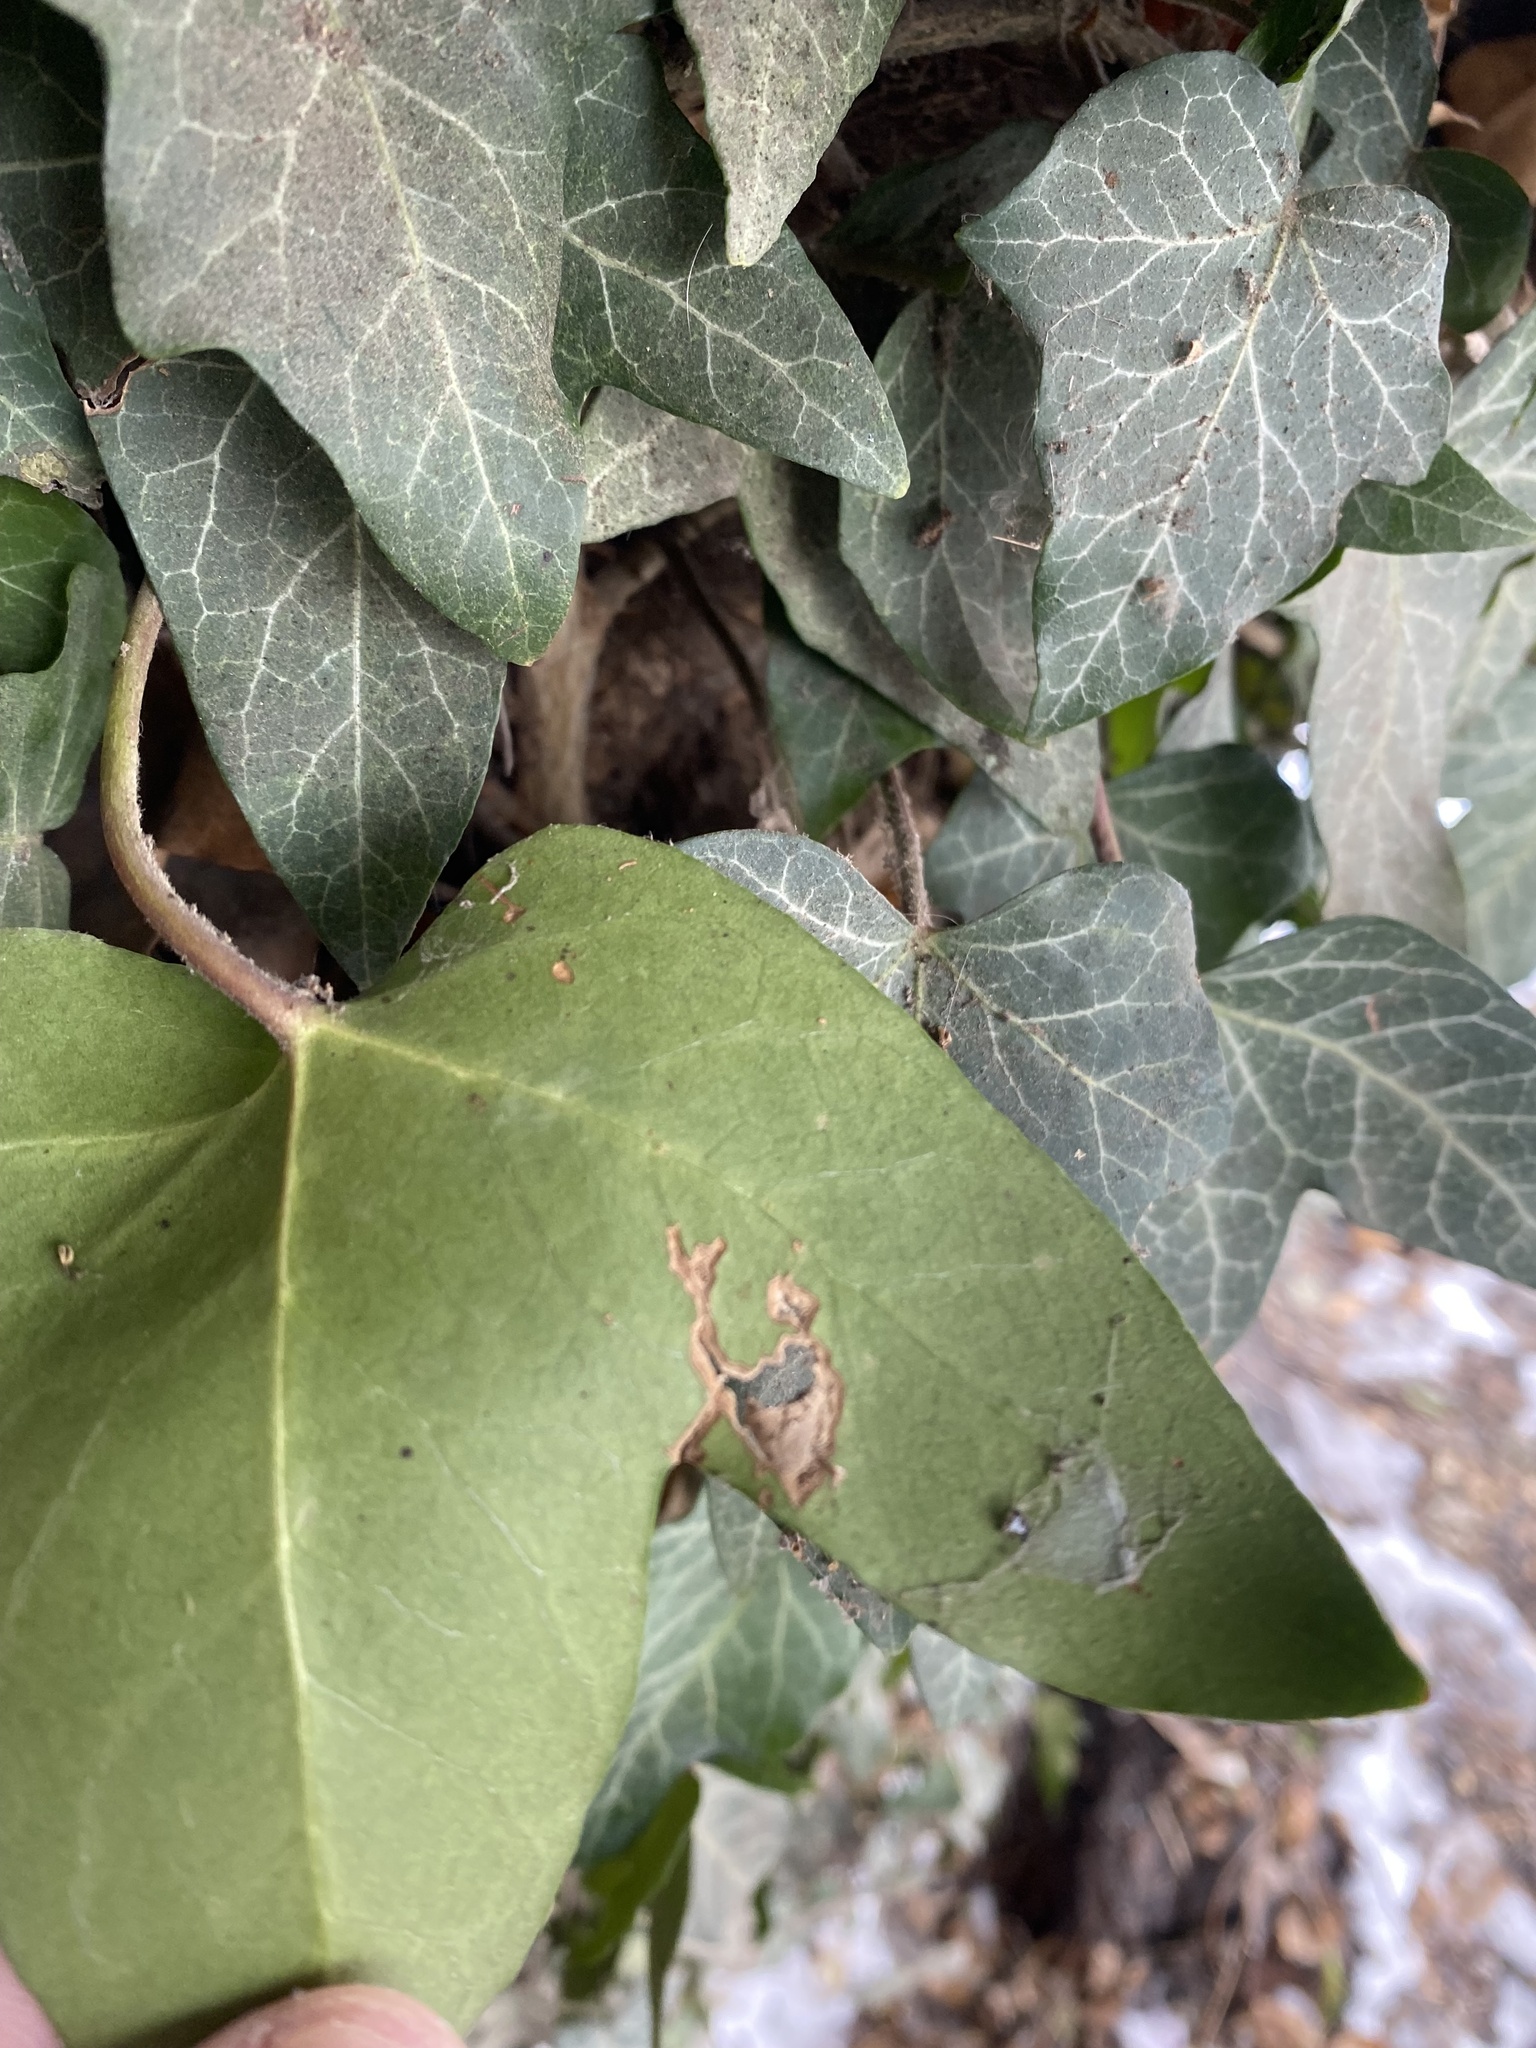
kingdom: Plantae
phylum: Tracheophyta
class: Magnoliopsida
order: Apiales
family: Araliaceae
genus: Hedera
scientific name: Hedera helix
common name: Ivy
